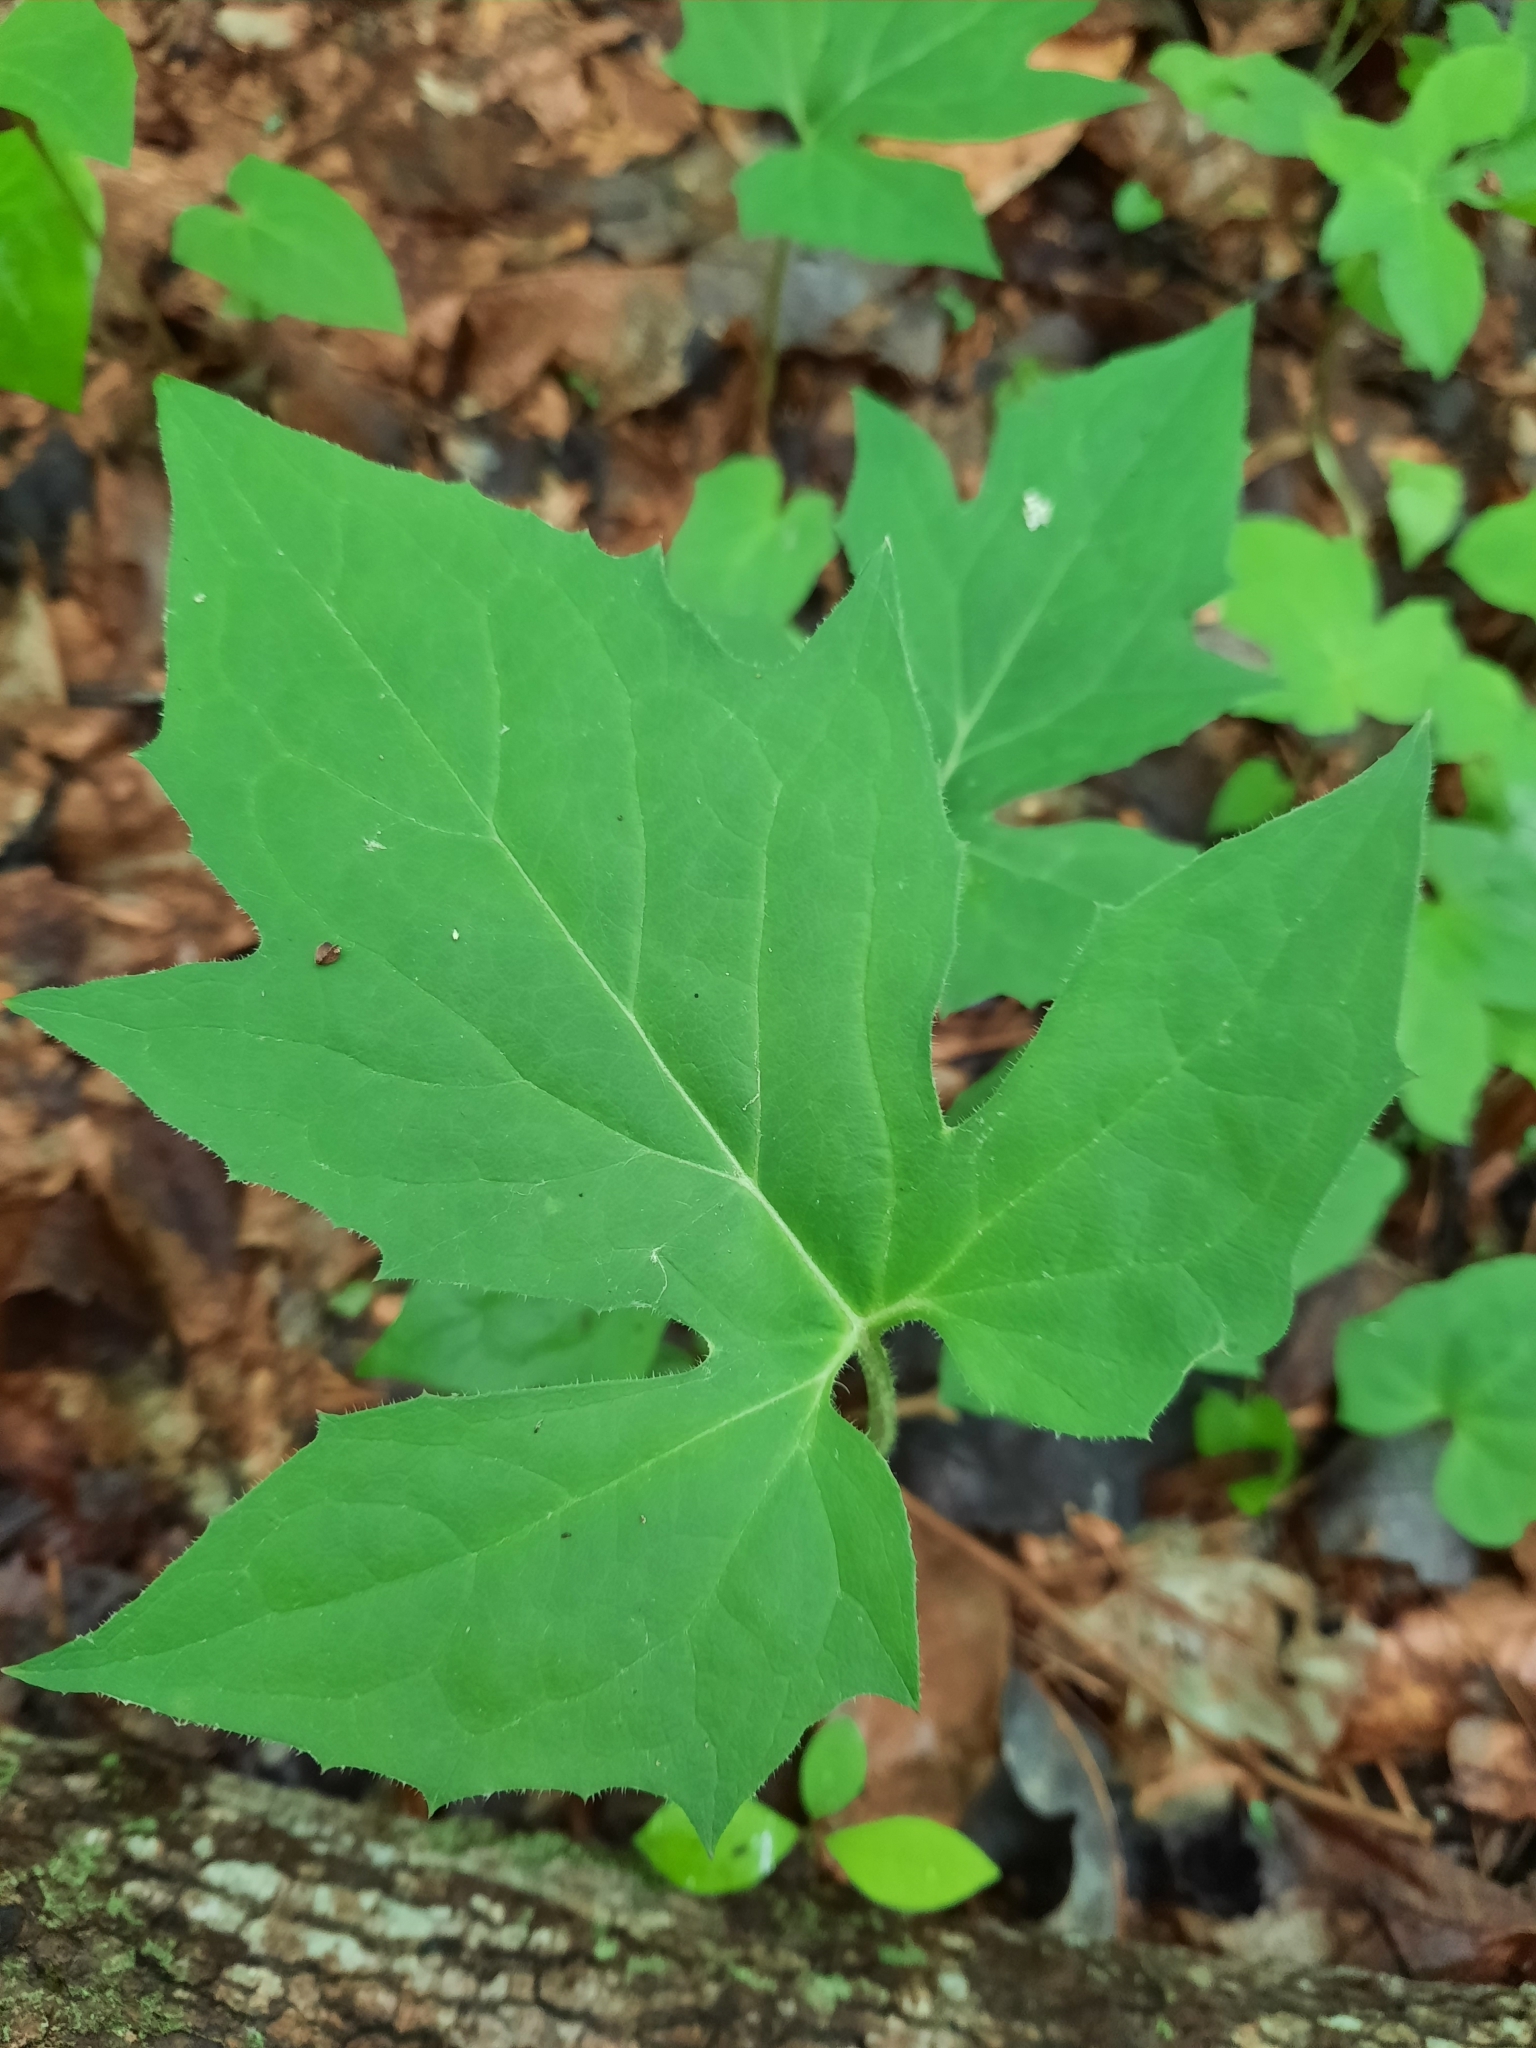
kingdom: Plantae
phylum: Tracheophyta
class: Magnoliopsida
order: Asterales
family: Asteraceae
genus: Nabalus
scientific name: Nabalus
